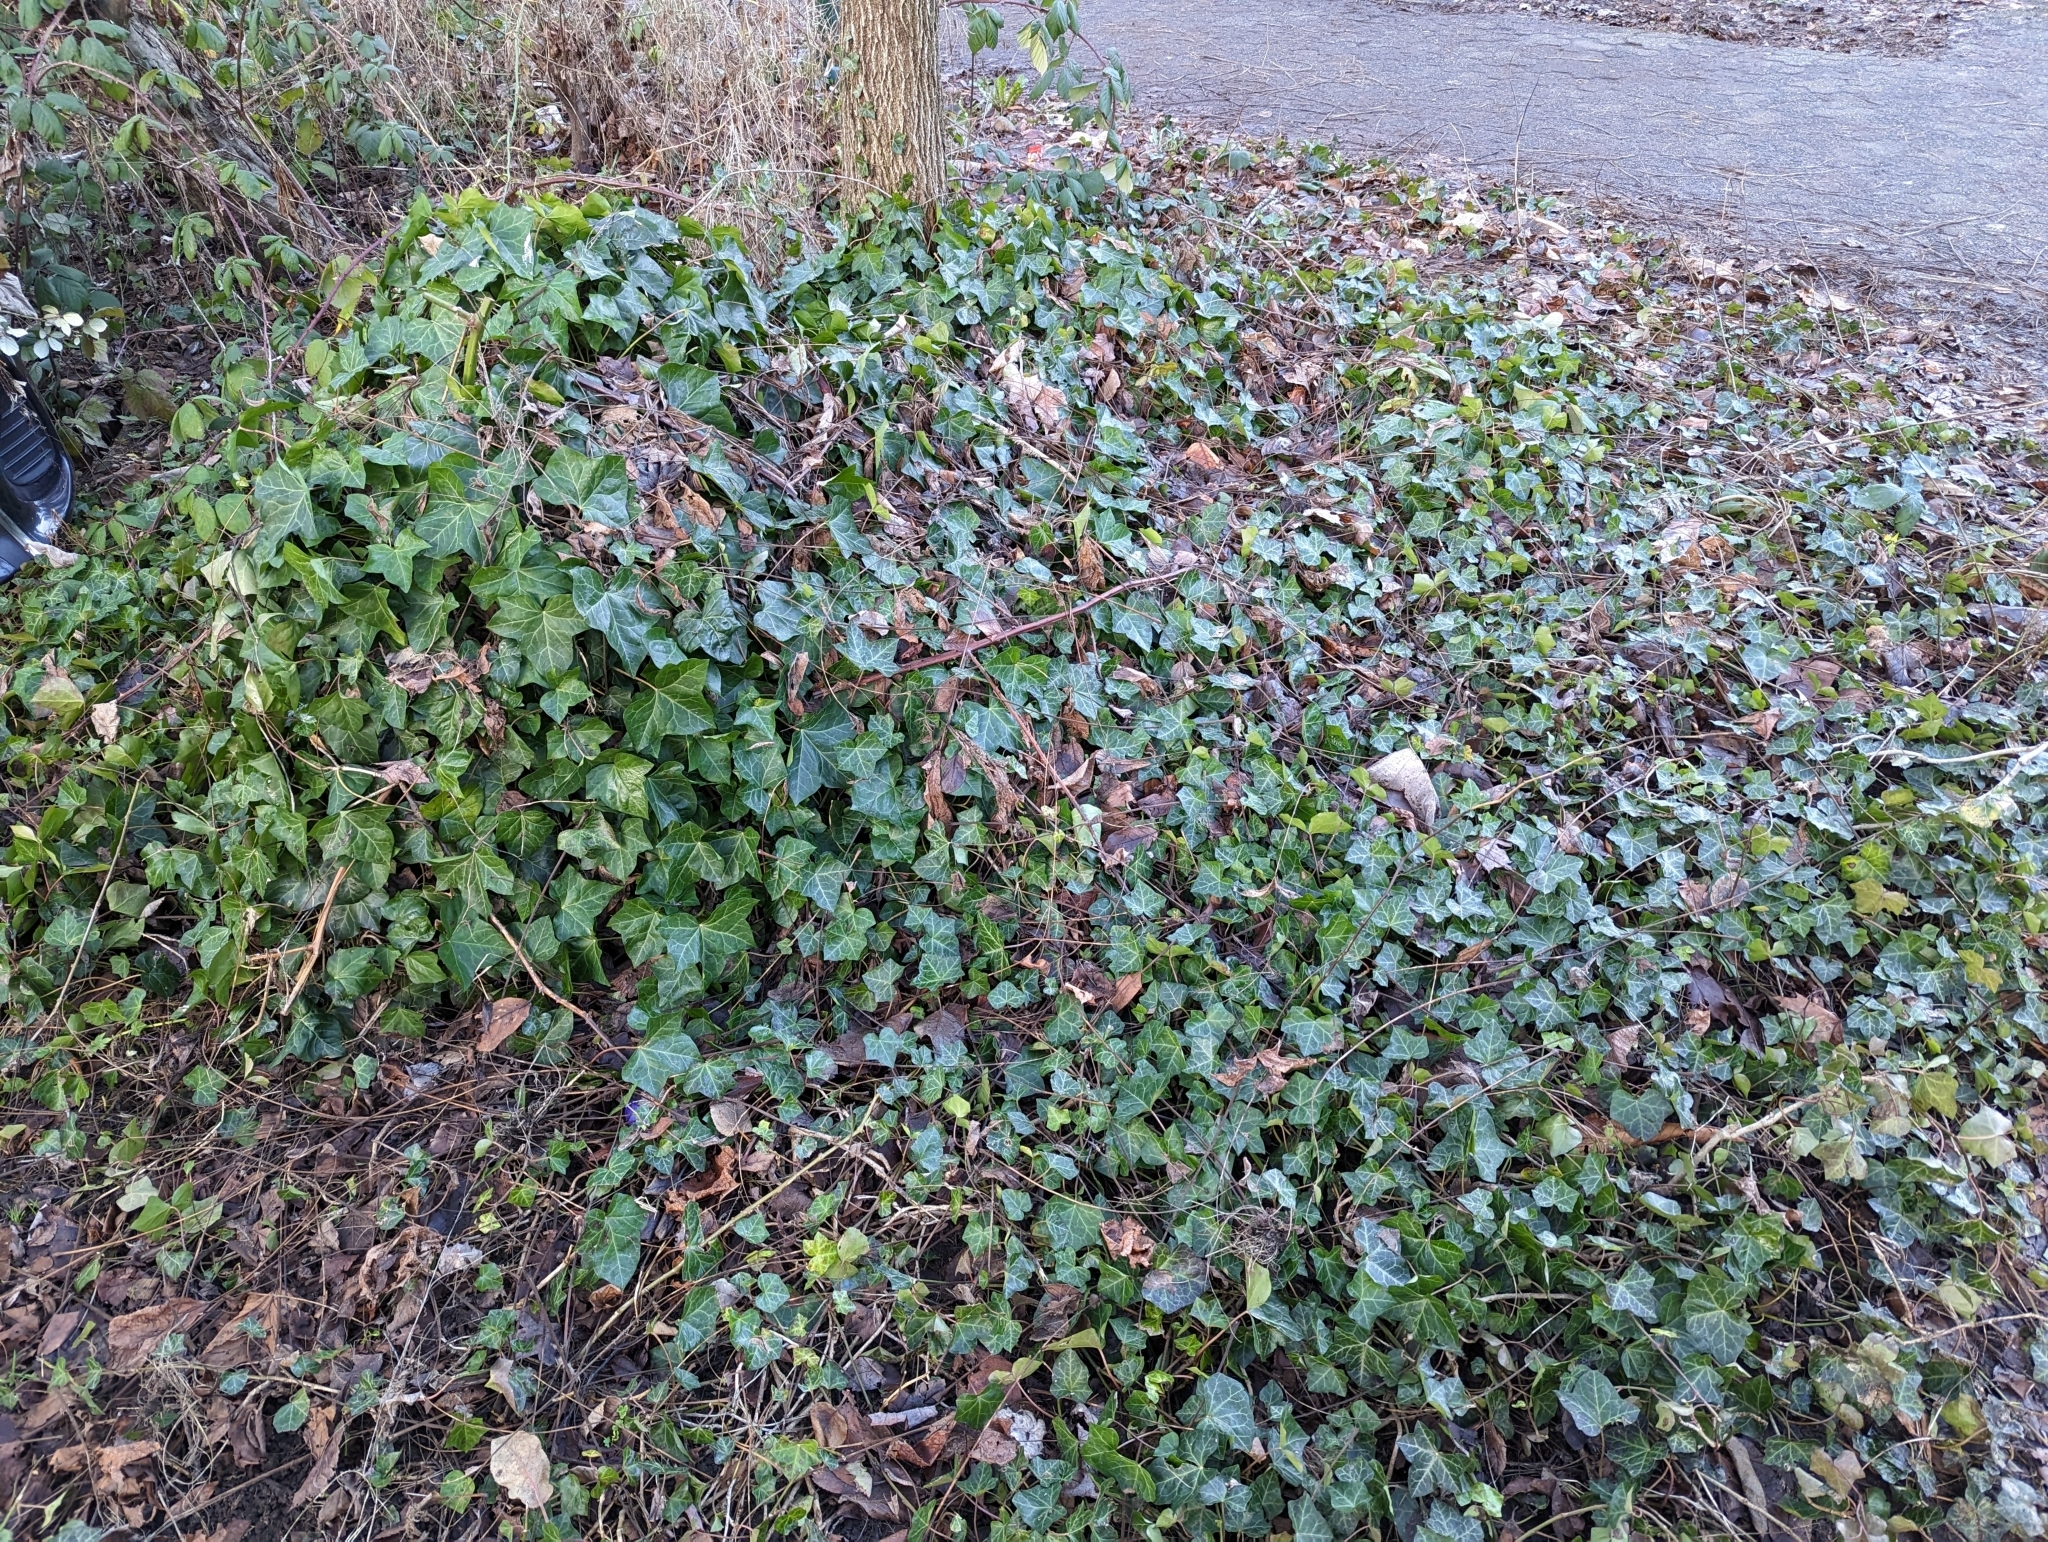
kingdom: Plantae
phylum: Tracheophyta
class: Magnoliopsida
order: Apiales
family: Araliaceae
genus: Hedera
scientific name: Hedera helix
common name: Ivy
